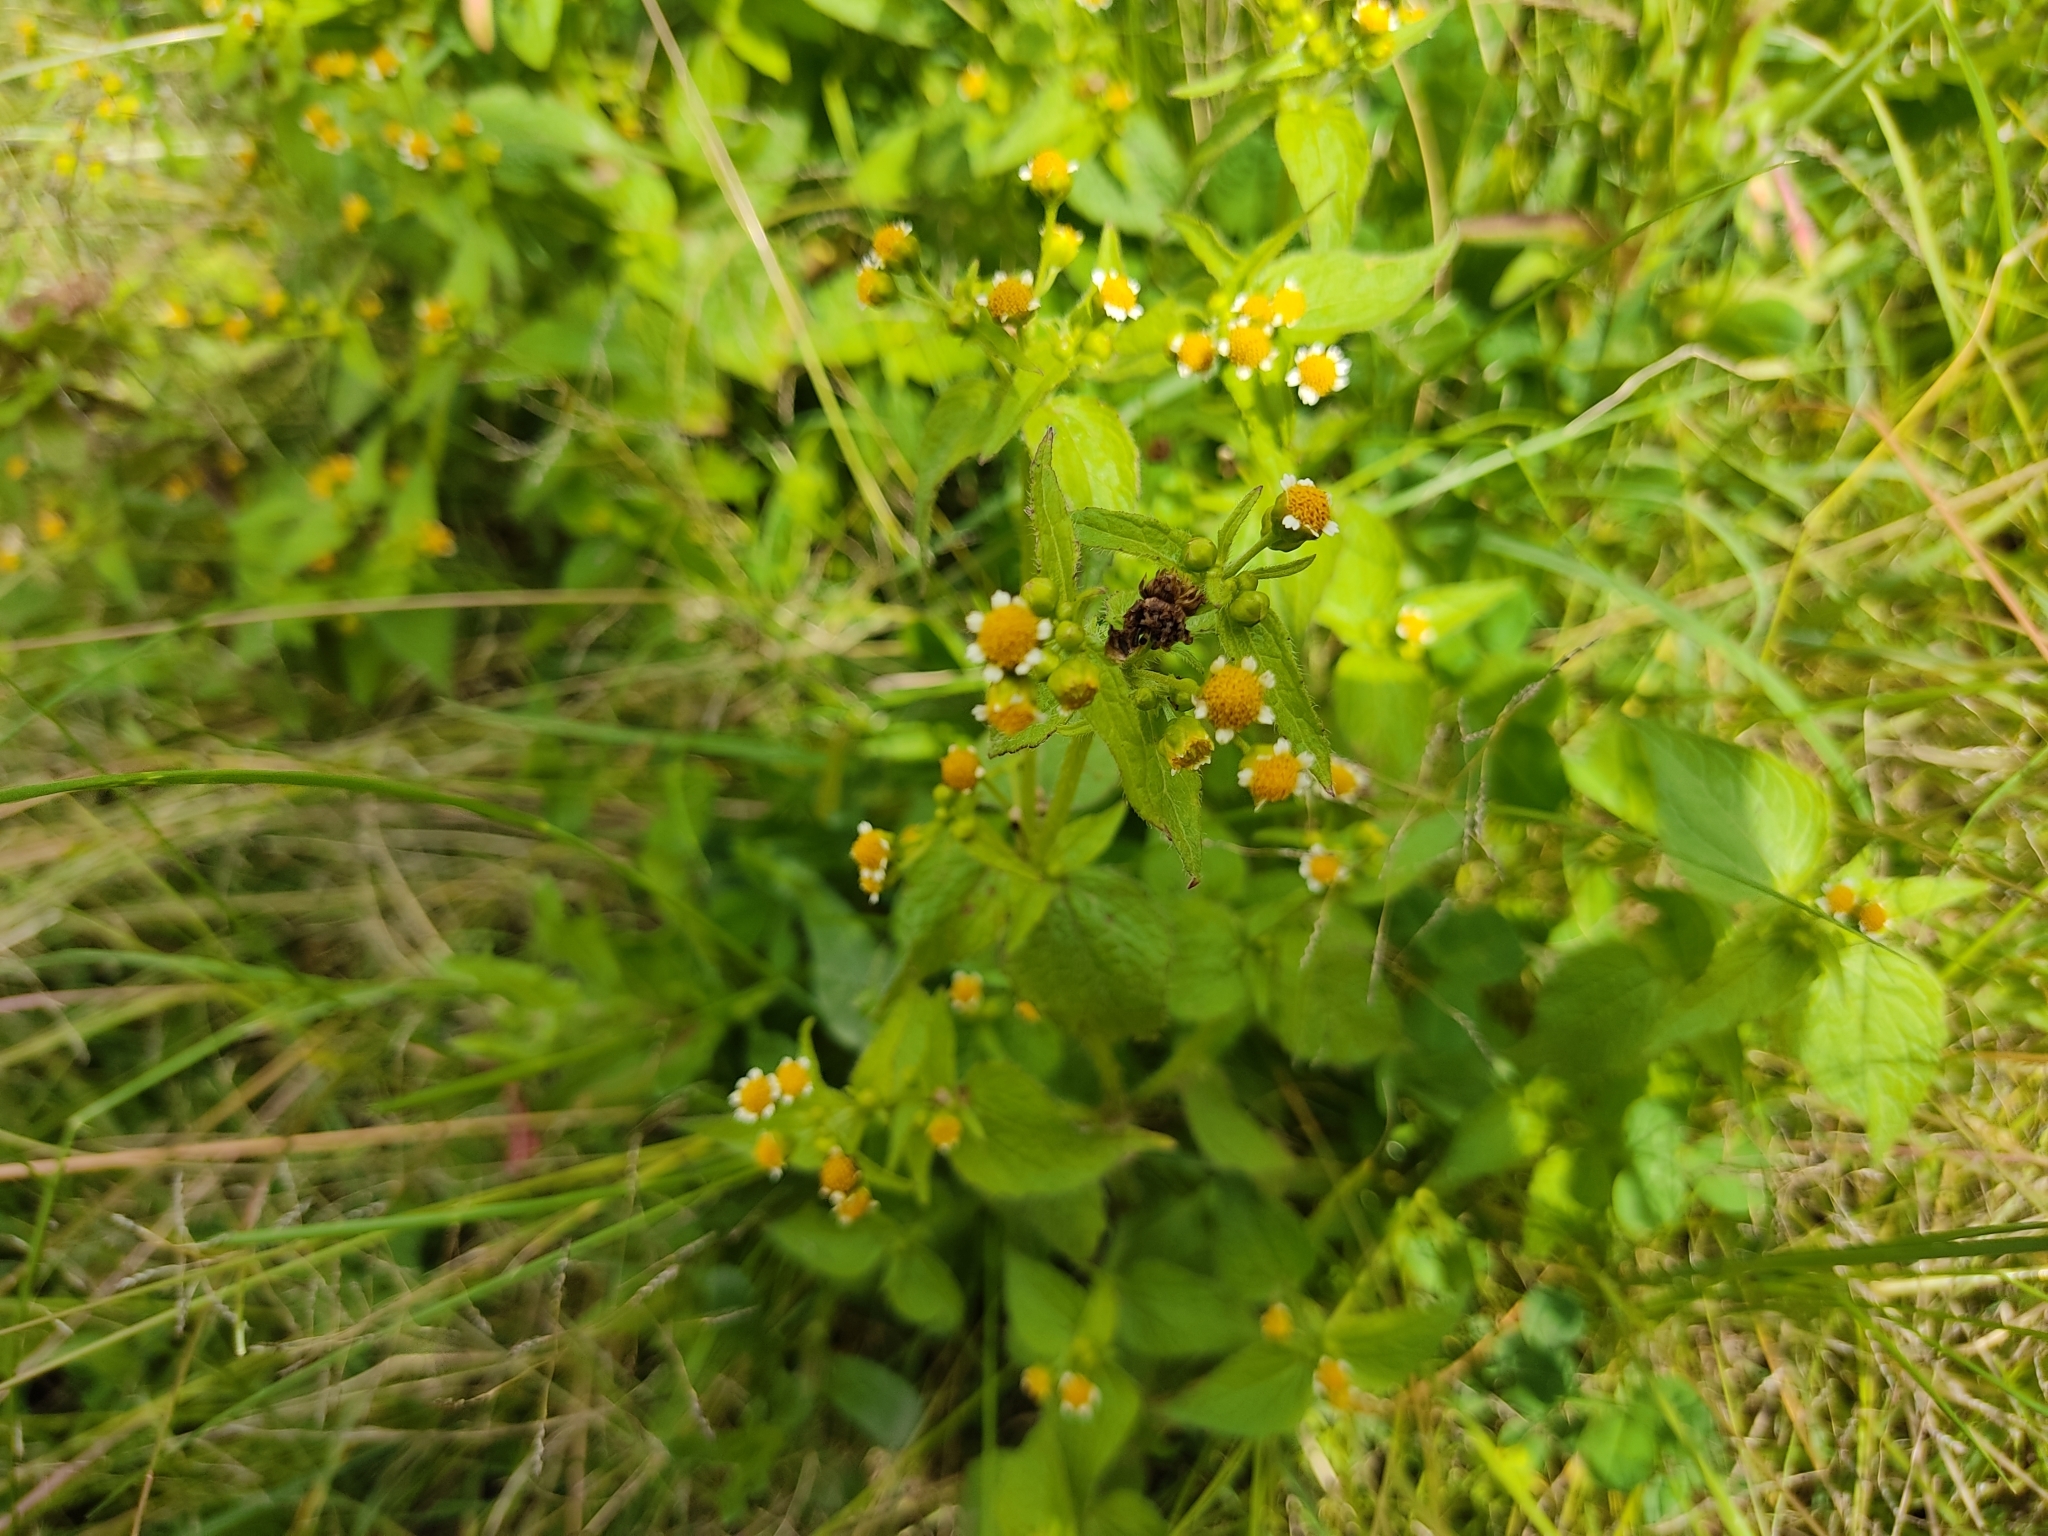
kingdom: Plantae
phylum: Tracheophyta
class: Magnoliopsida
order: Asterales
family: Asteraceae
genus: Galinsoga
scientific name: Galinsoga parviflora
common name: Gallant soldier
